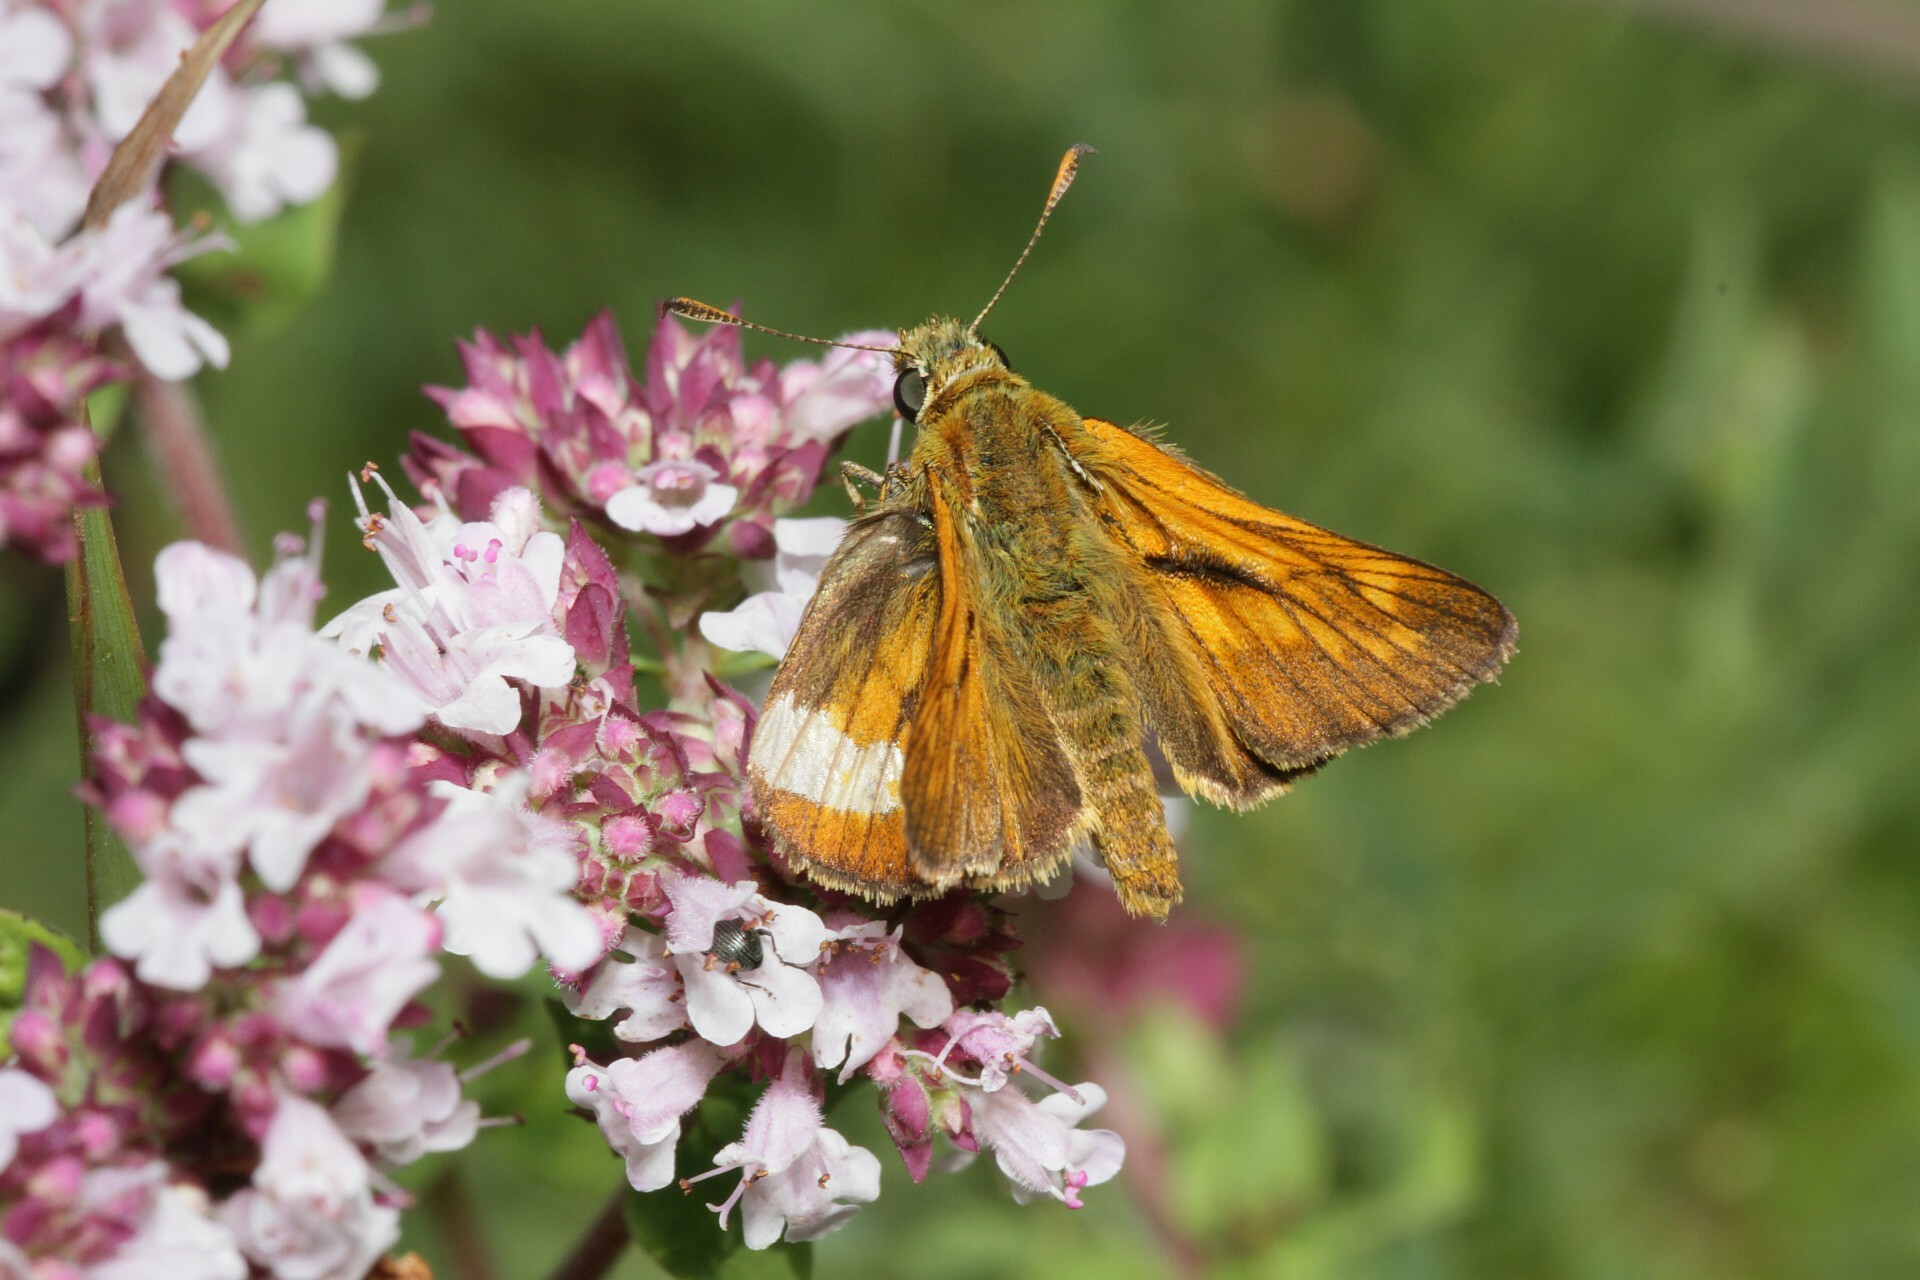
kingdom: Animalia
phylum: Arthropoda
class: Insecta
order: Lepidoptera
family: Hesperiidae
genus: Ochlodes
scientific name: Ochlodes venata
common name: Large skipper
